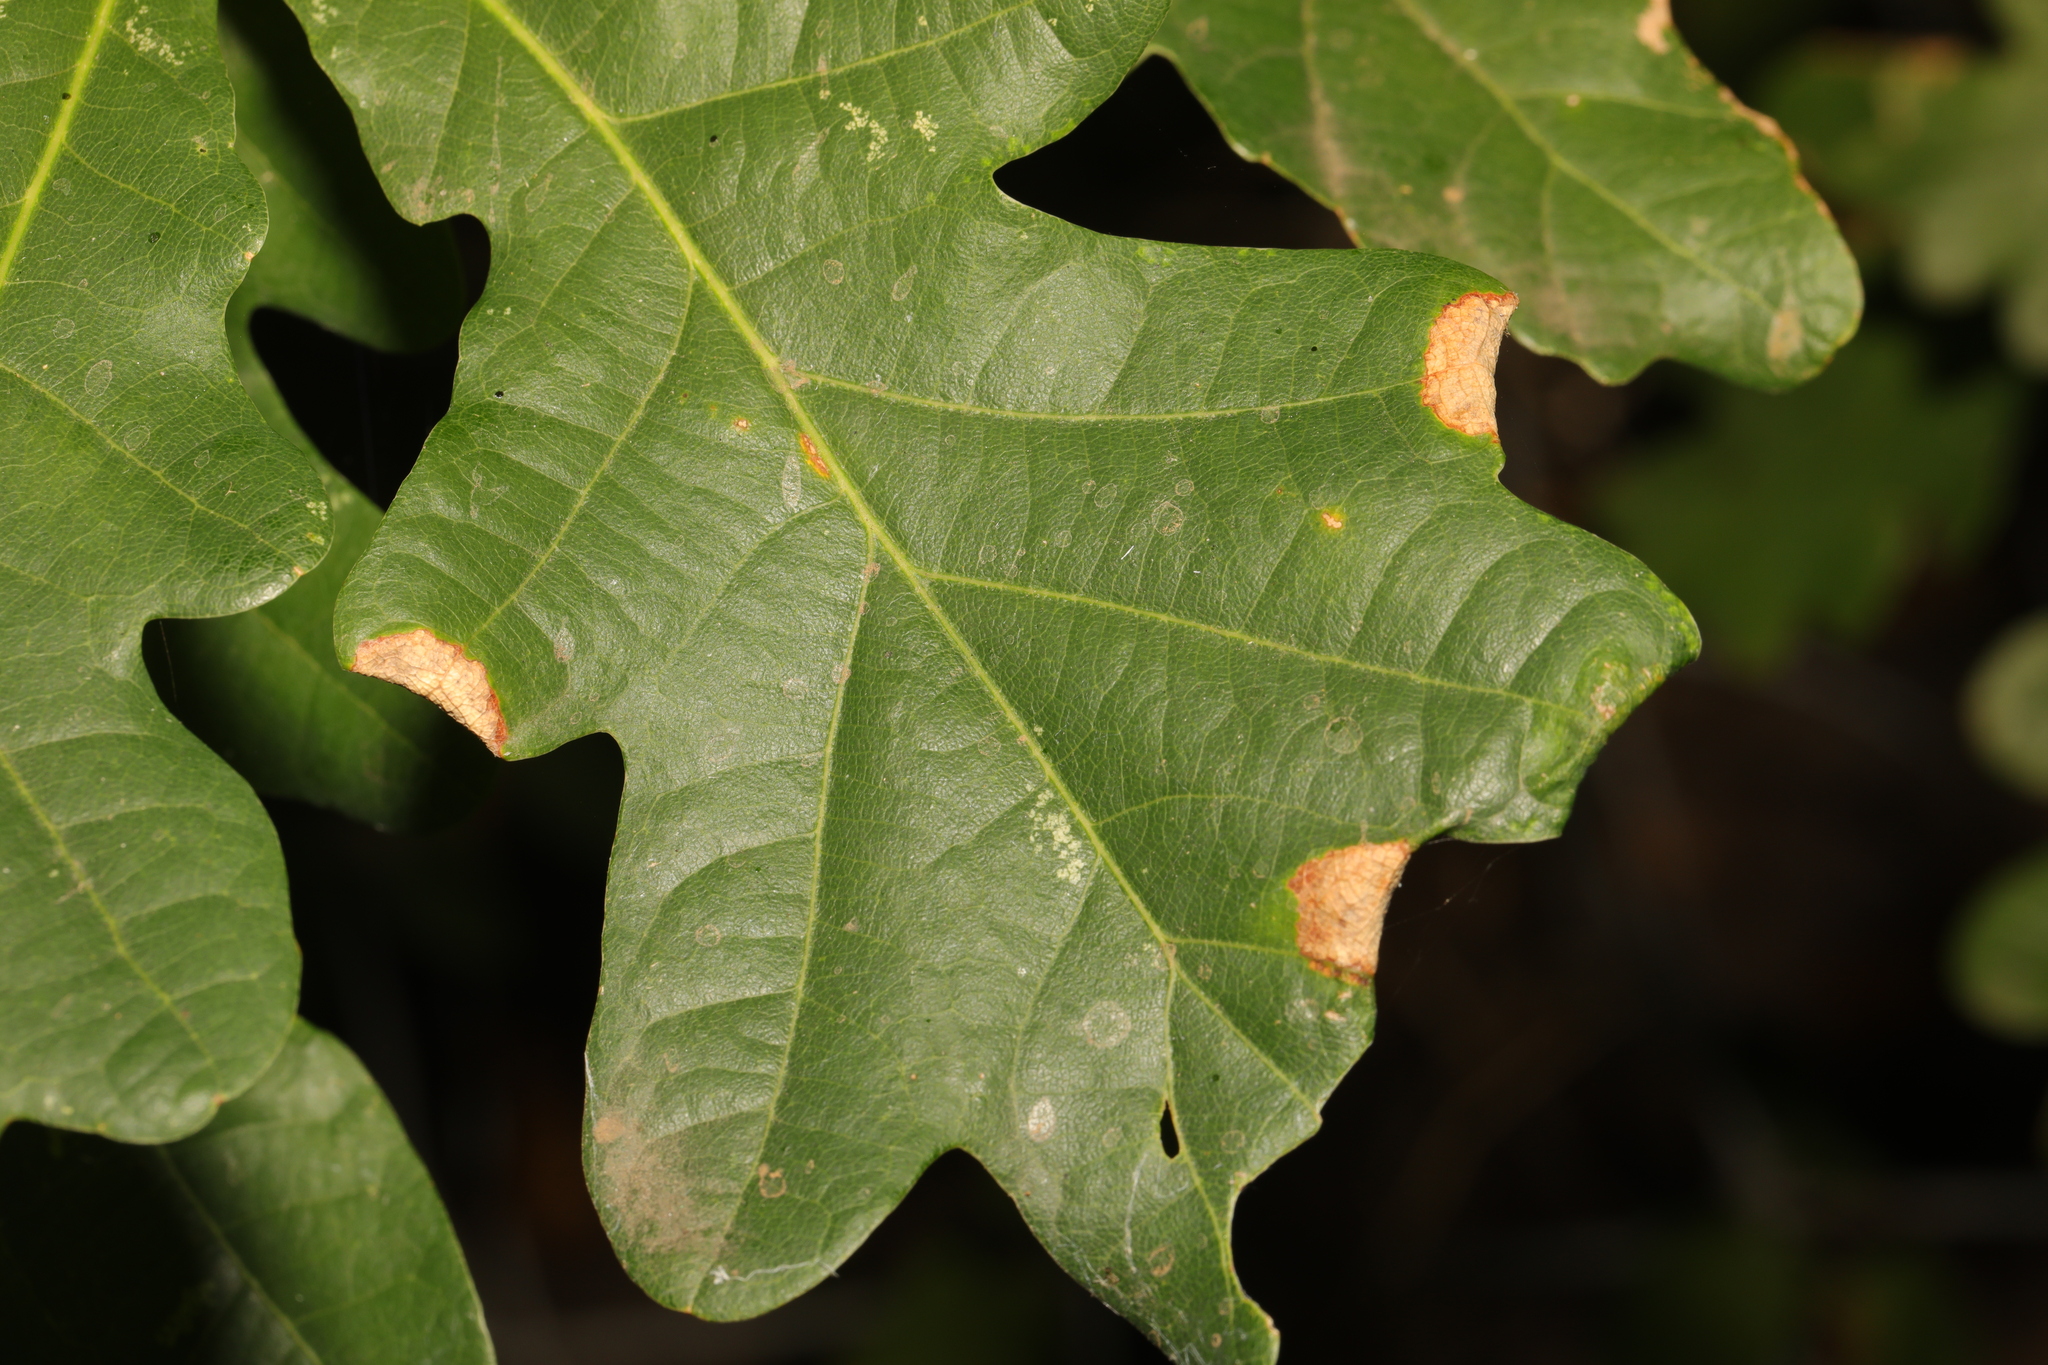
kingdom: Plantae
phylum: Tracheophyta
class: Magnoliopsida
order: Fagales
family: Fagaceae
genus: Quercus
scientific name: Quercus robur
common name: Pedunculate oak
